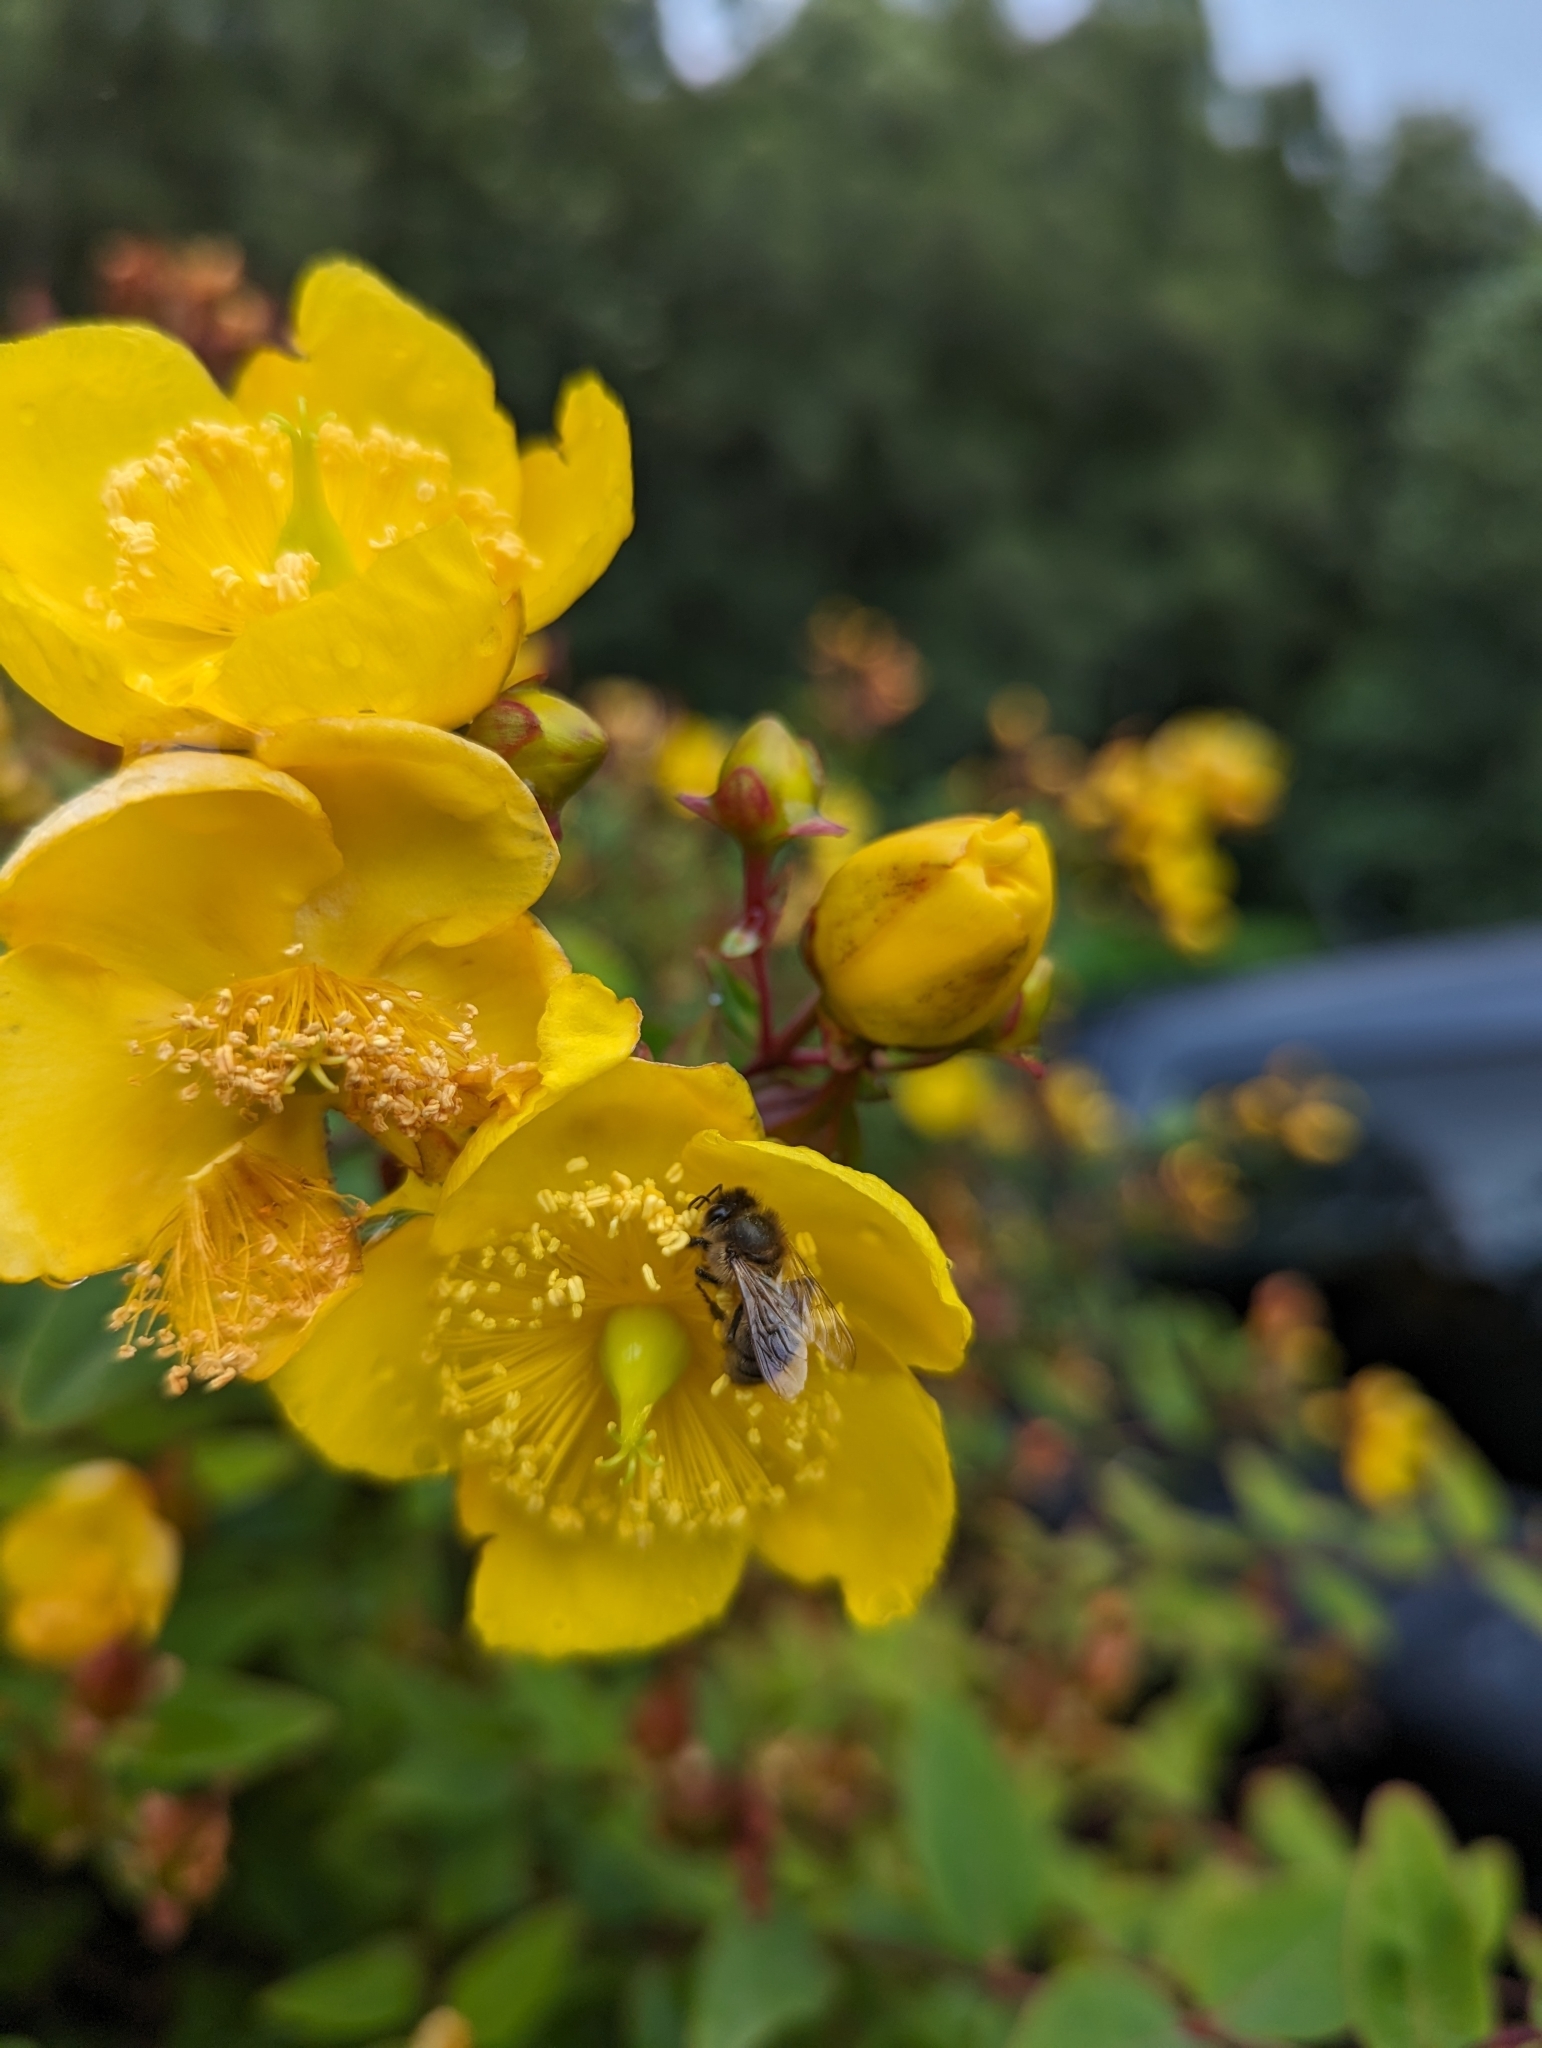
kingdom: Animalia
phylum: Arthropoda
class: Insecta
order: Hymenoptera
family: Apidae
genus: Apis
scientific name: Apis mellifera
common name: Honey bee
